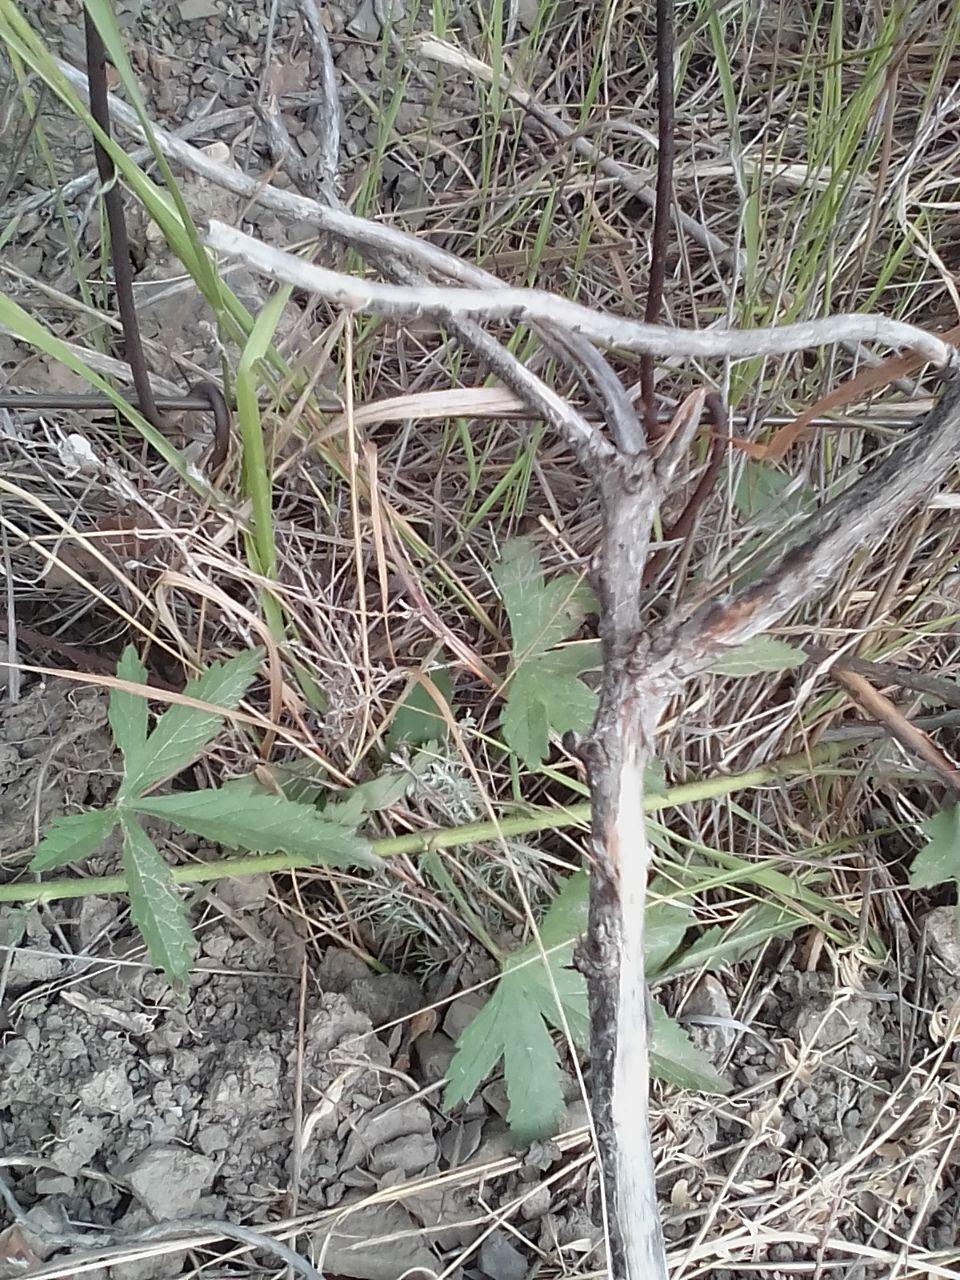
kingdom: Plantae
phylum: Tracheophyta
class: Magnoliopsida
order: Malvales
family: Malvaceae
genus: Althaea
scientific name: Althaea cannabina
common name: Palm-leaf marshmallow
